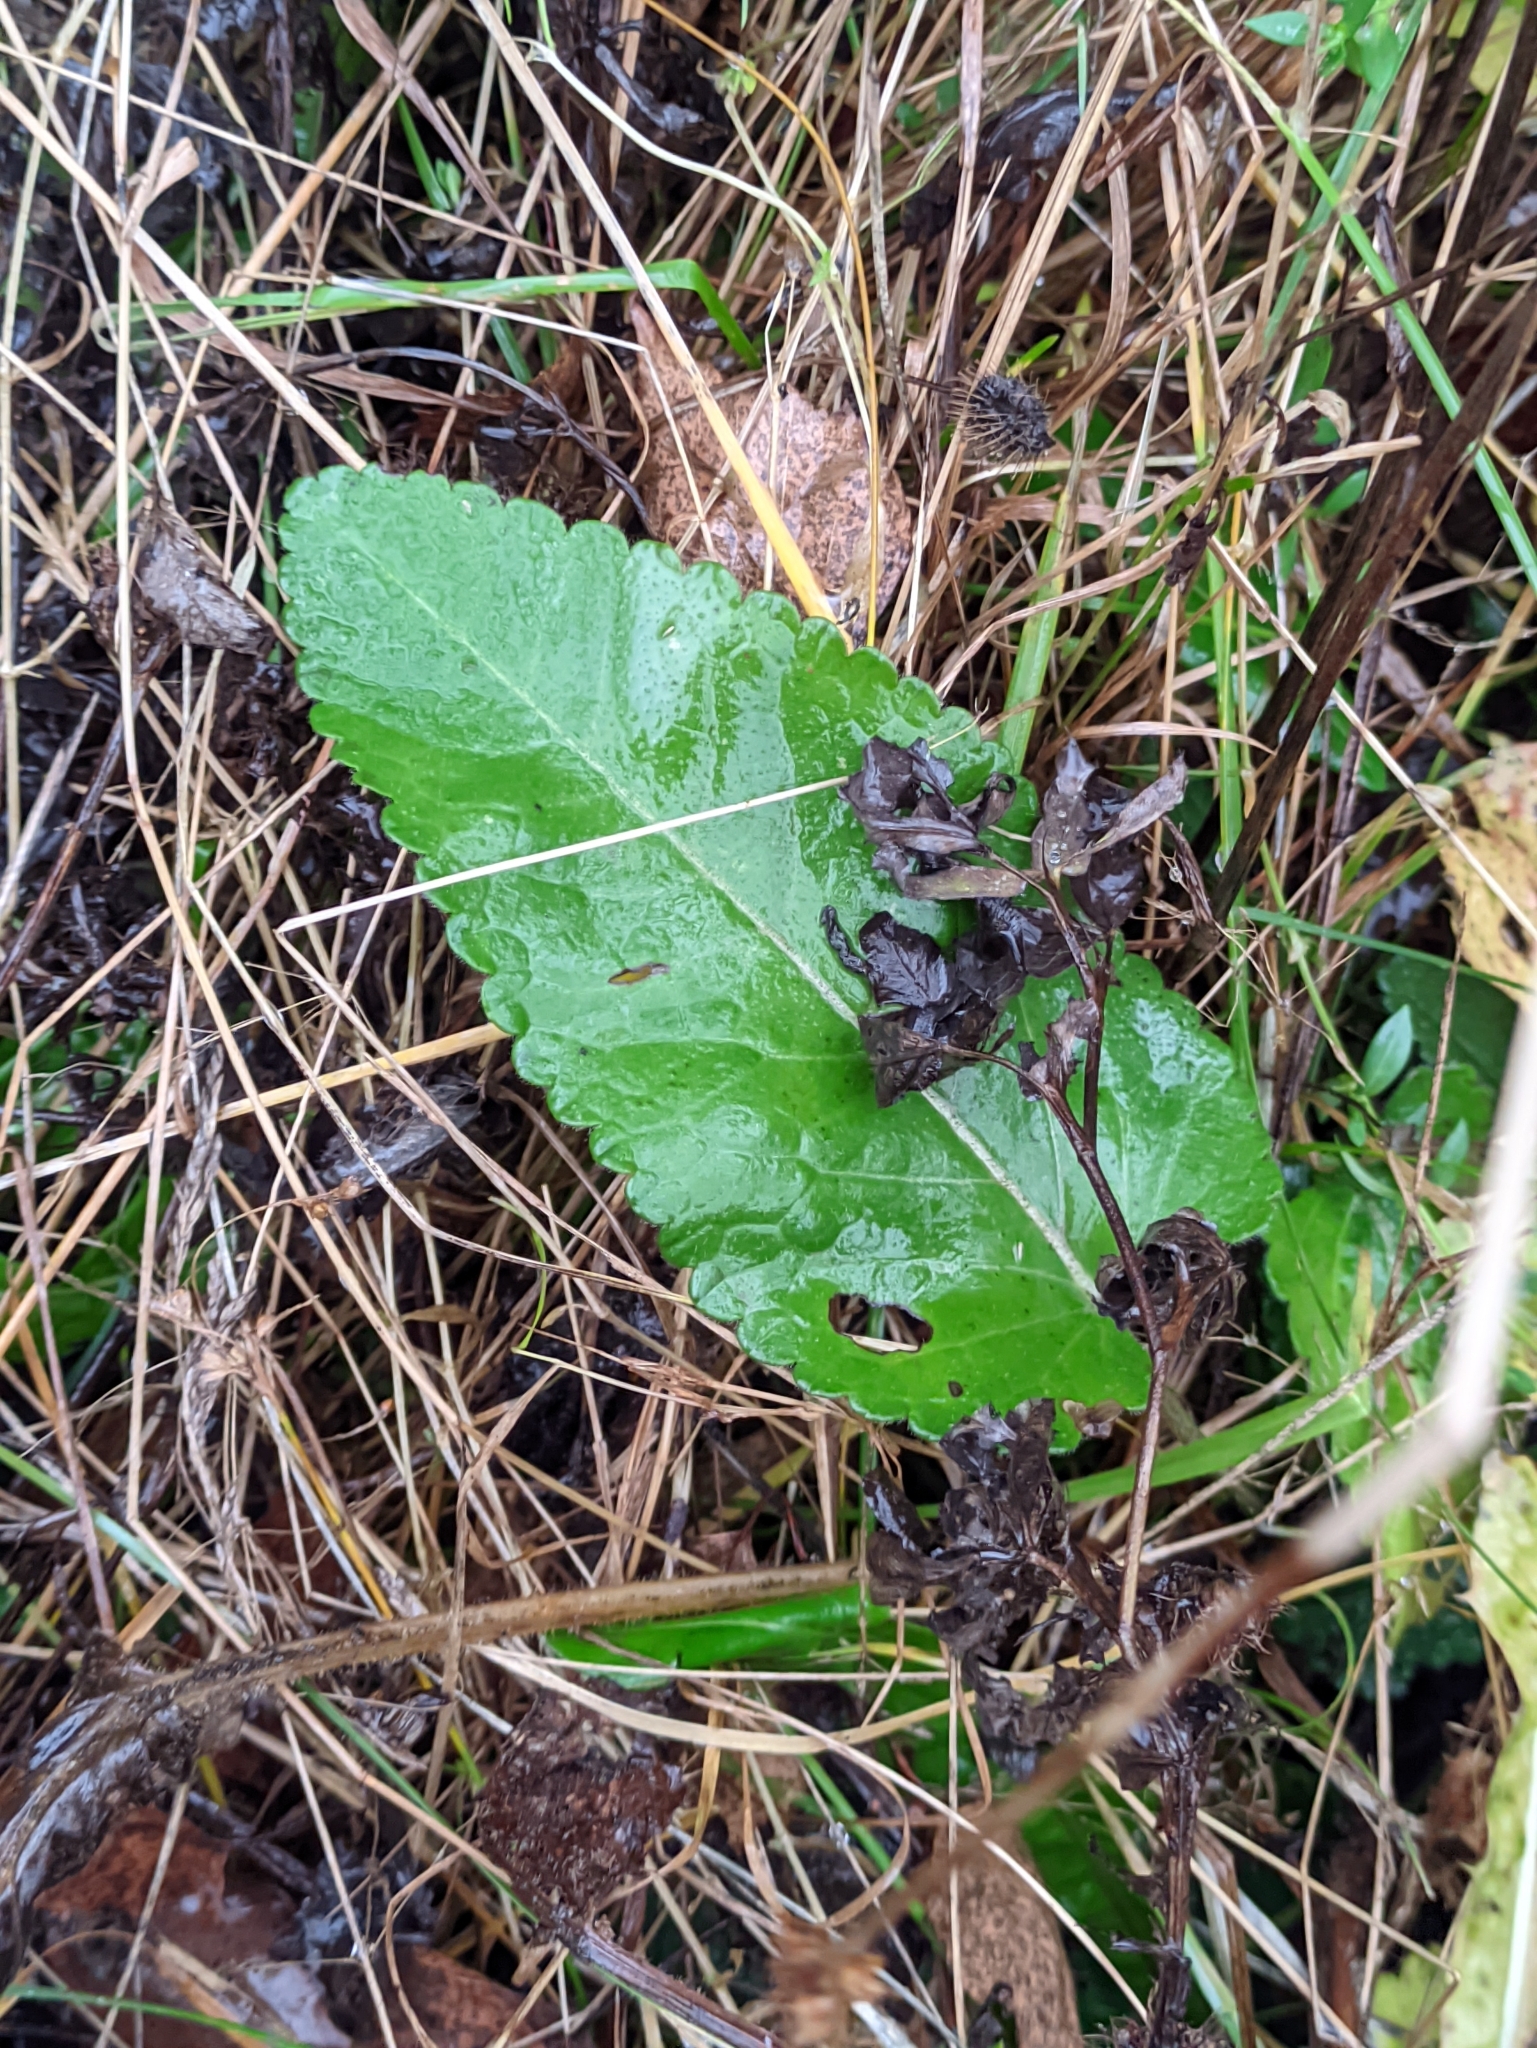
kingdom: Plantae
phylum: Tracheophyta
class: Magnoliopsida
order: Lamiales
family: Lamiaceae
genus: Betonica
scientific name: Betonica officinalis
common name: Bishop's-wort
